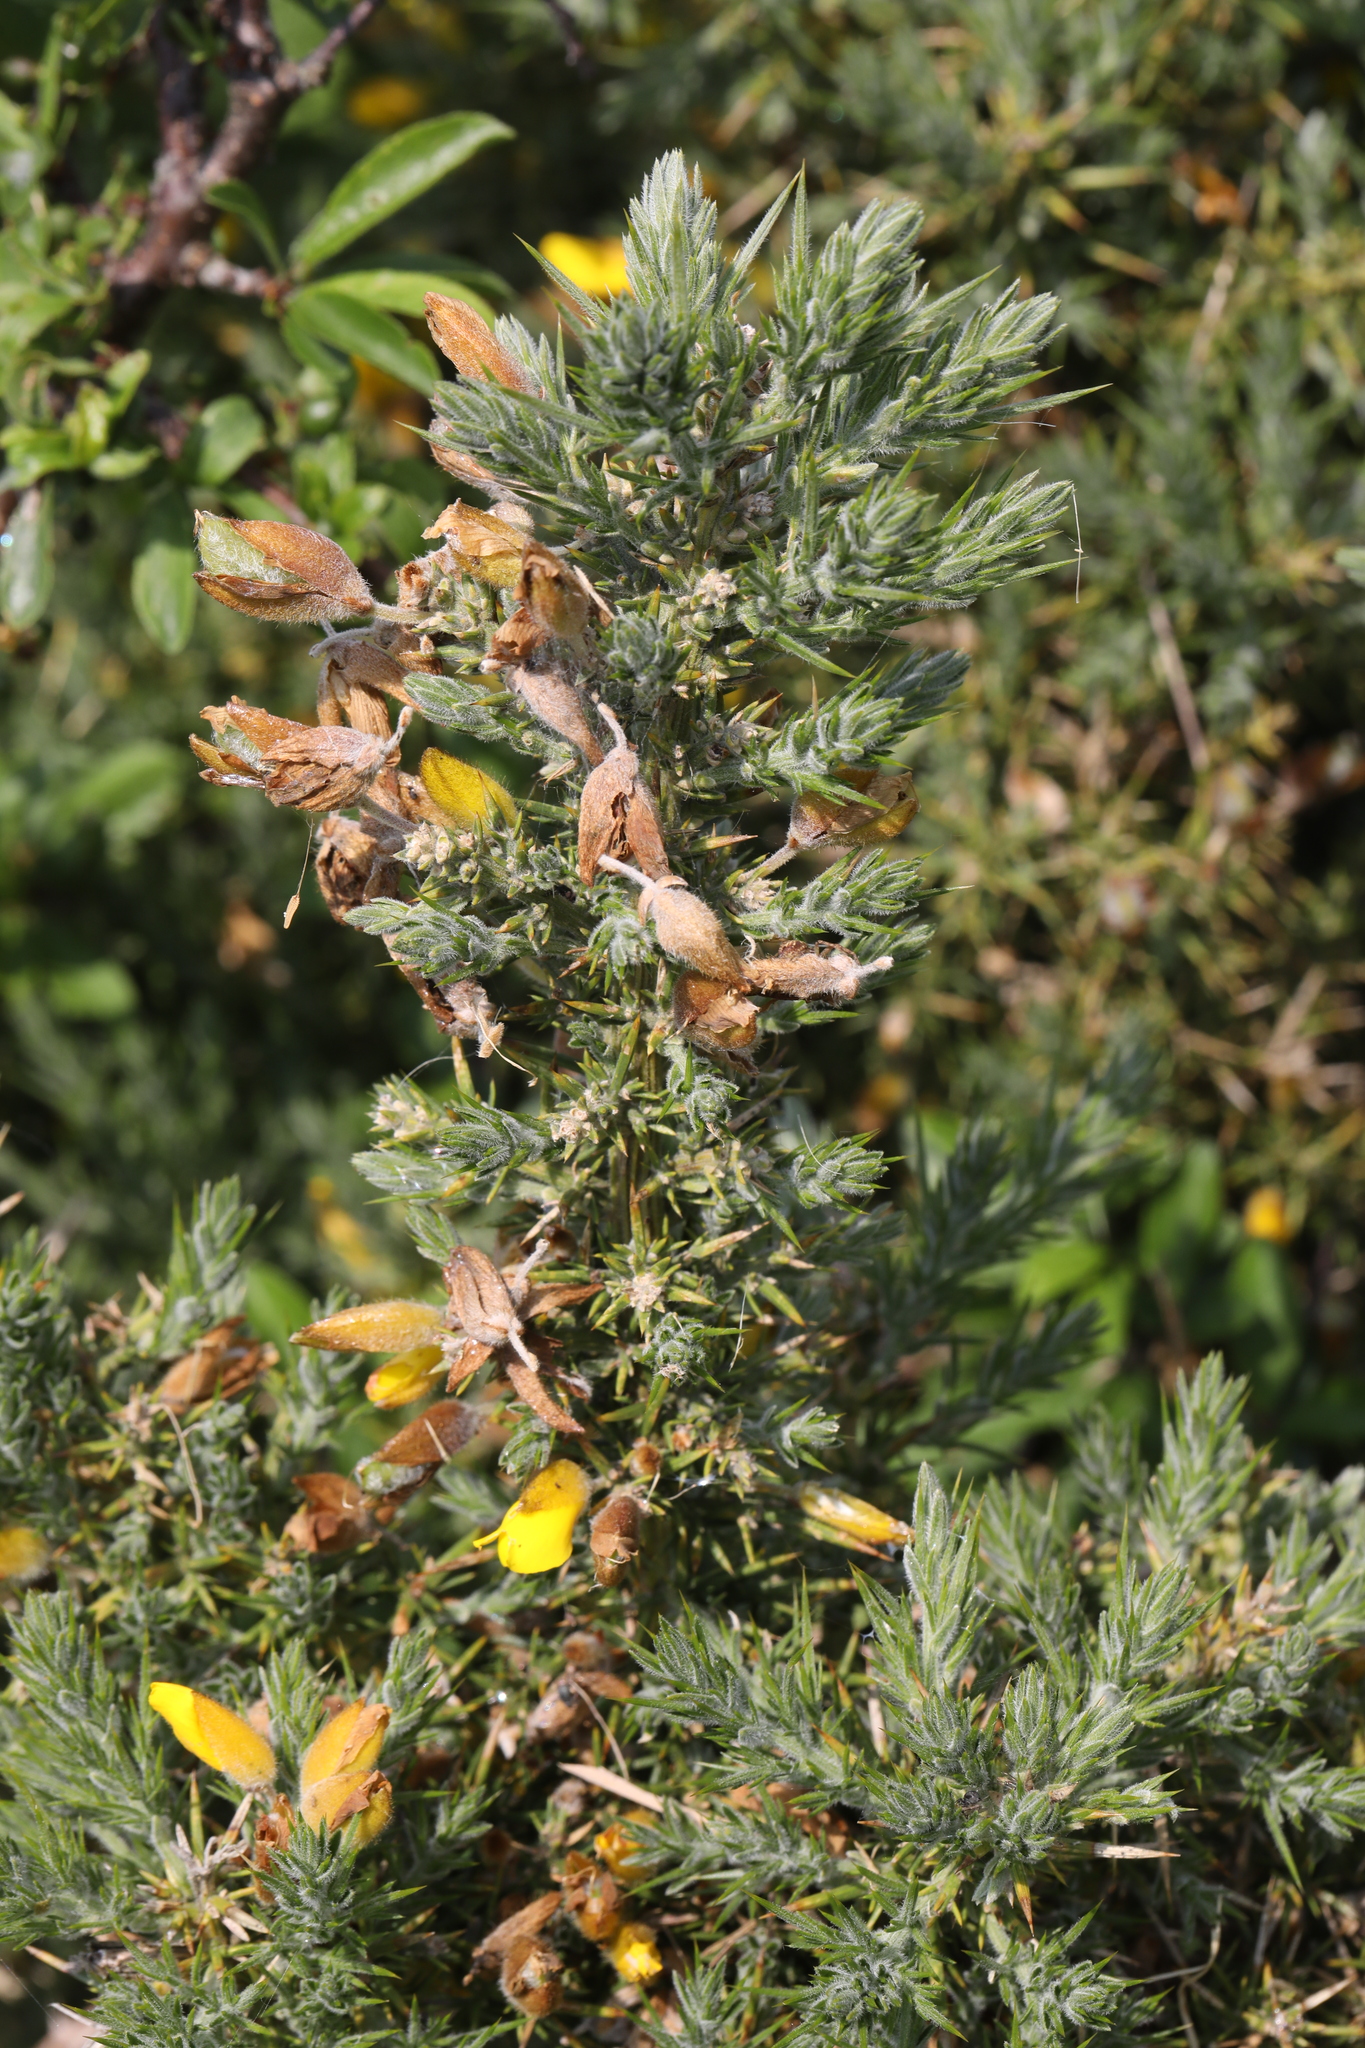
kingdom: Plantae
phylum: Tracheophyta
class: Magnoliopsida
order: Fabales
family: Fabaceae
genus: Ulex
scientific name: Ulex europaeus
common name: Common gorse
